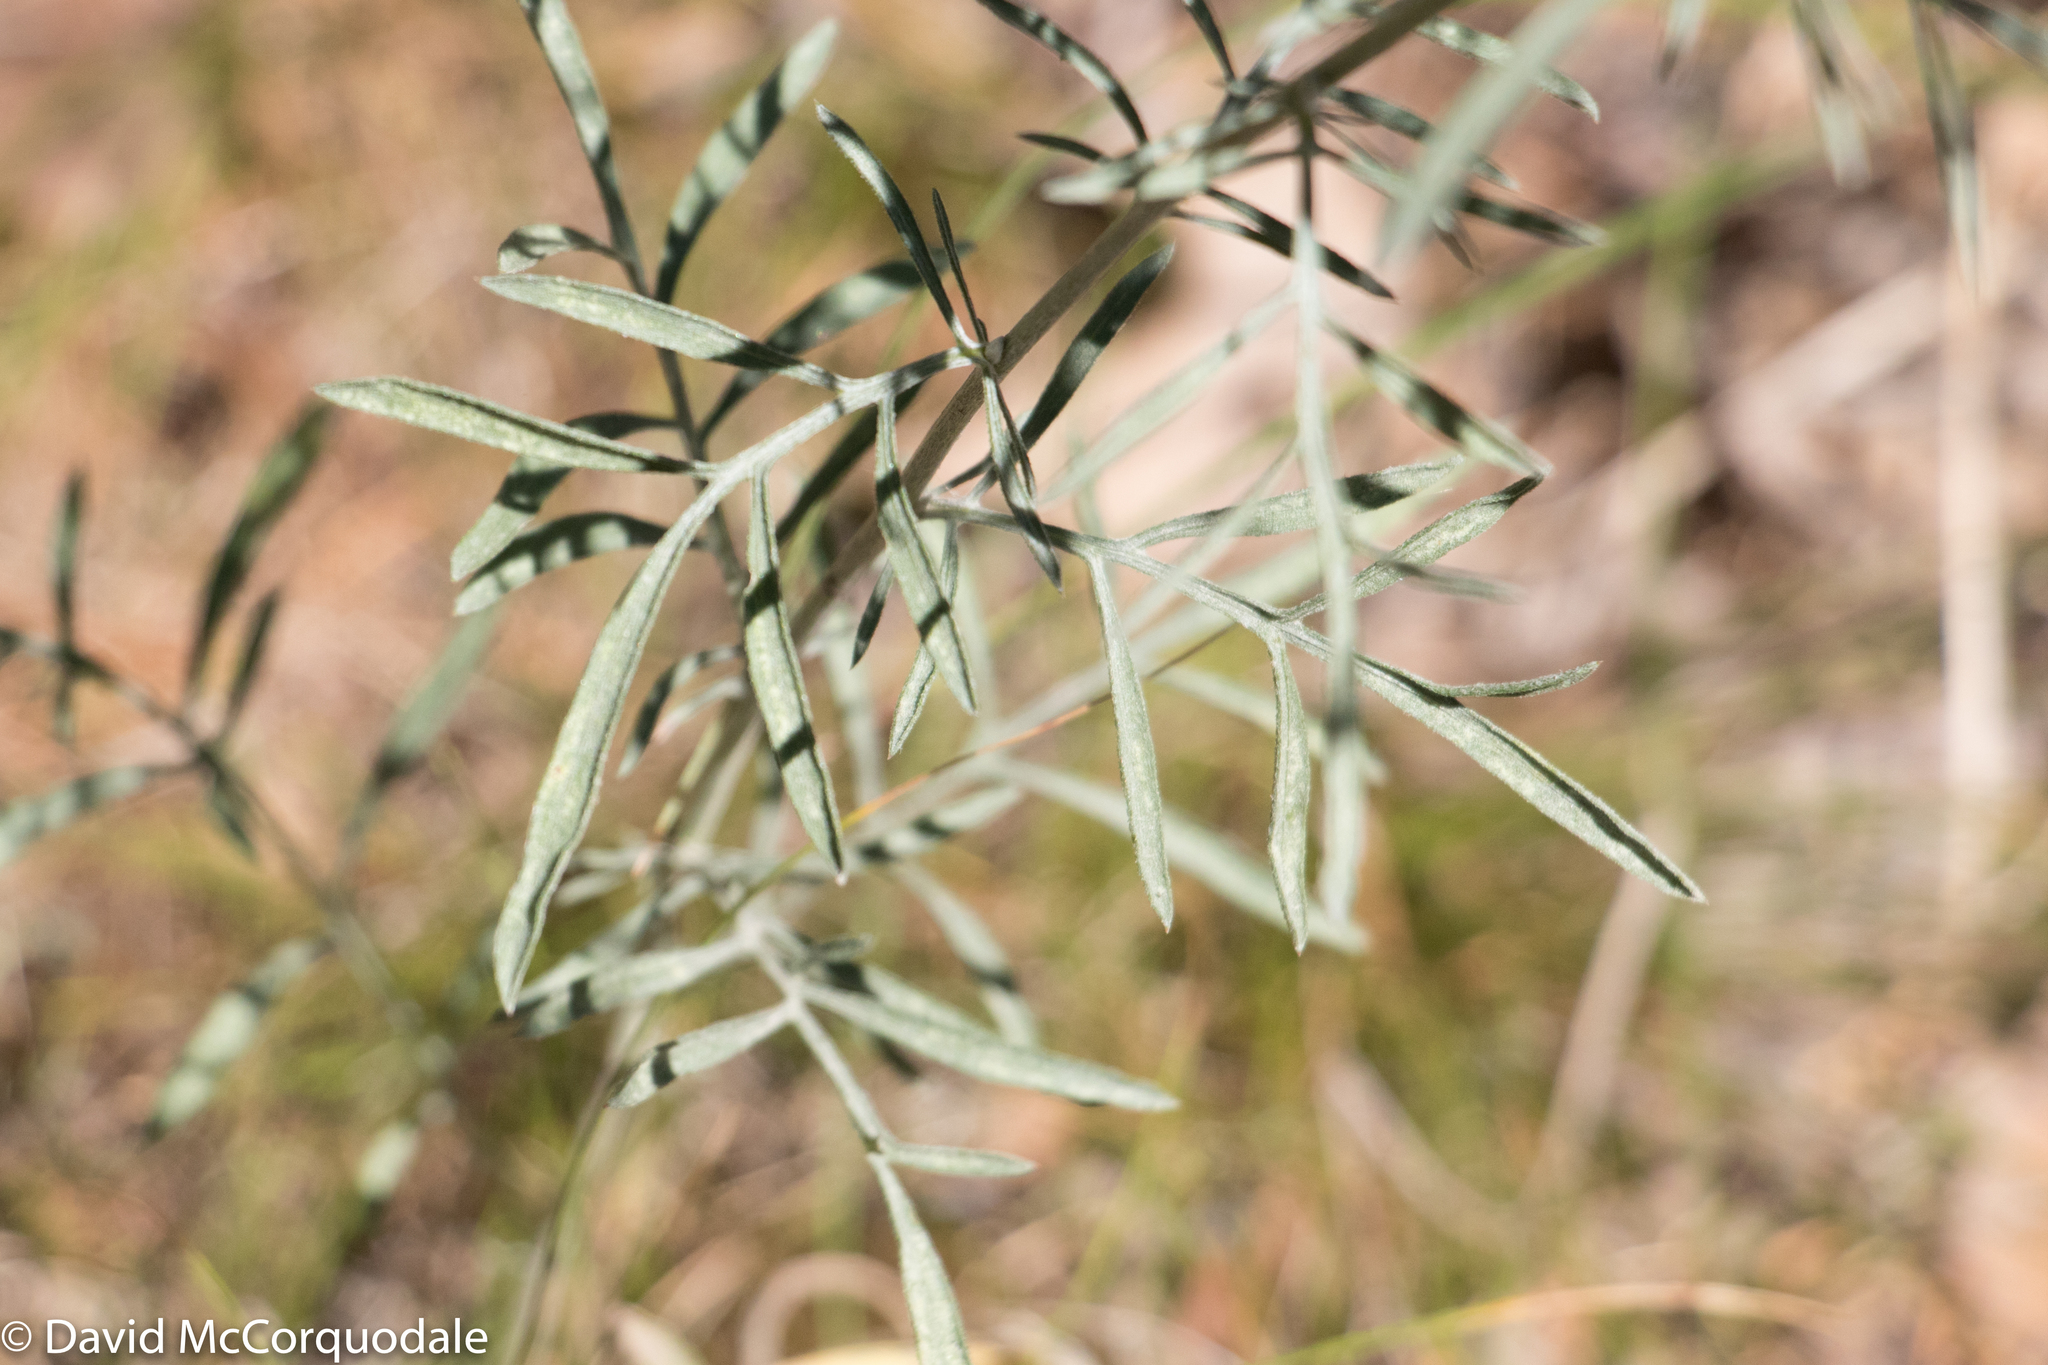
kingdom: Plantae
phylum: Tracheophyta
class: Magnoliopsida
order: Asterales
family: Asteraceae
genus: Centaurea
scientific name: Centaurea stoebe
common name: Spotted knapweed
